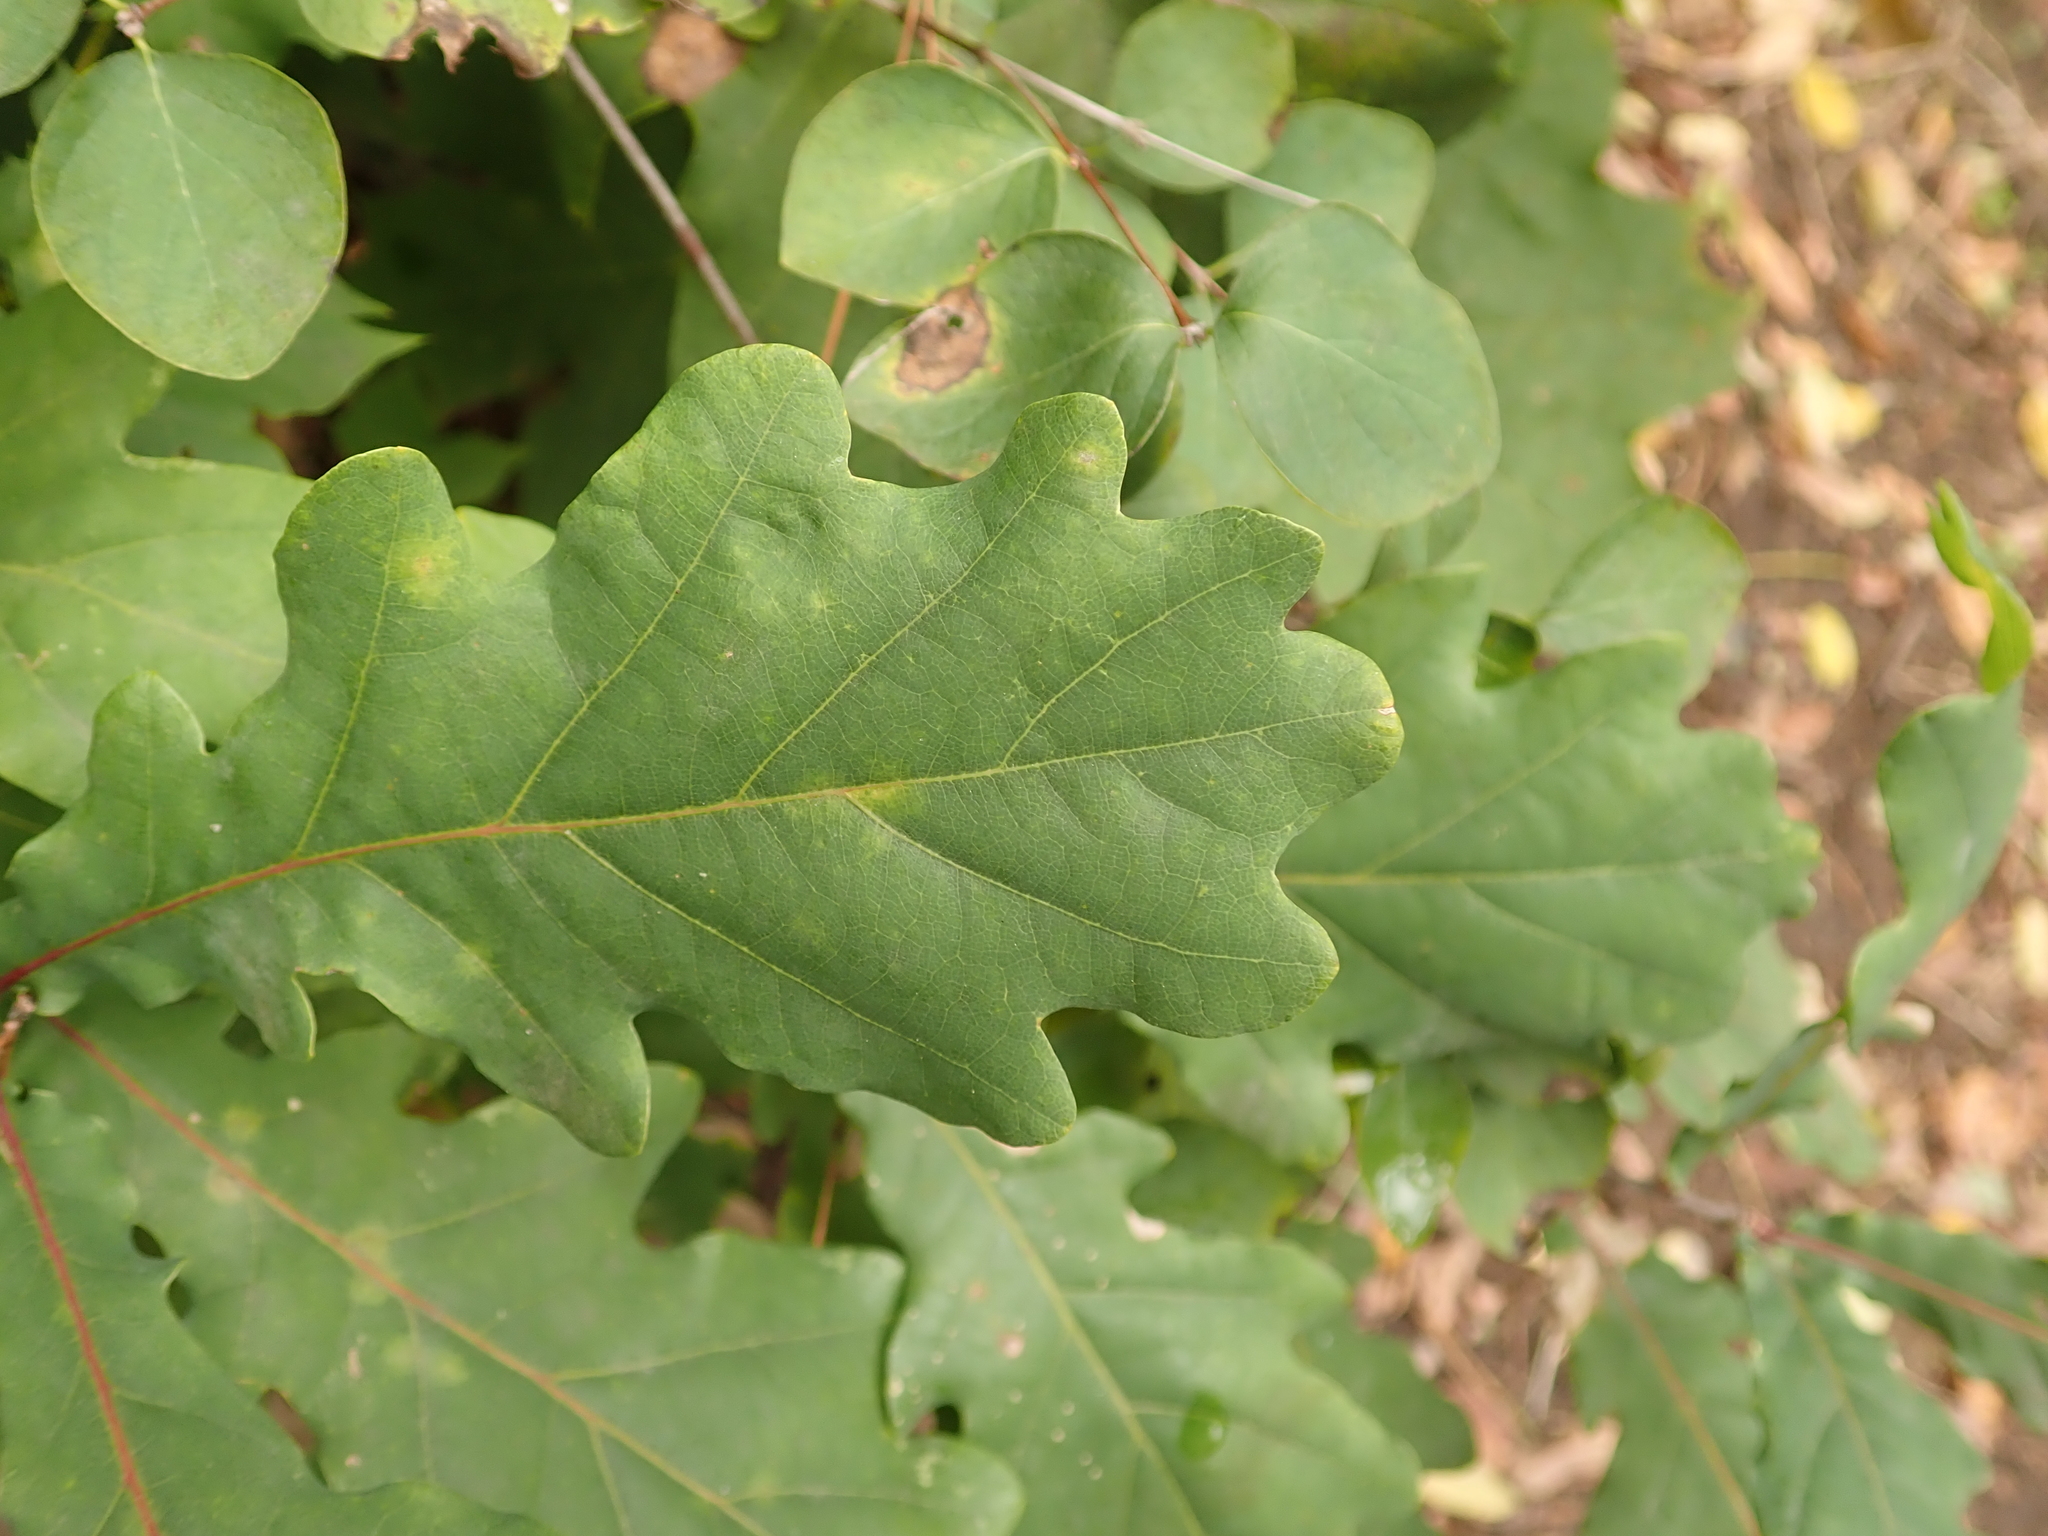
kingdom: Plantae
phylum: Tracheophyta
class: Magnoliopsida
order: Fagales
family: Fagaceae
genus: Quercus
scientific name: Quercus robur
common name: Pedunculate oak
